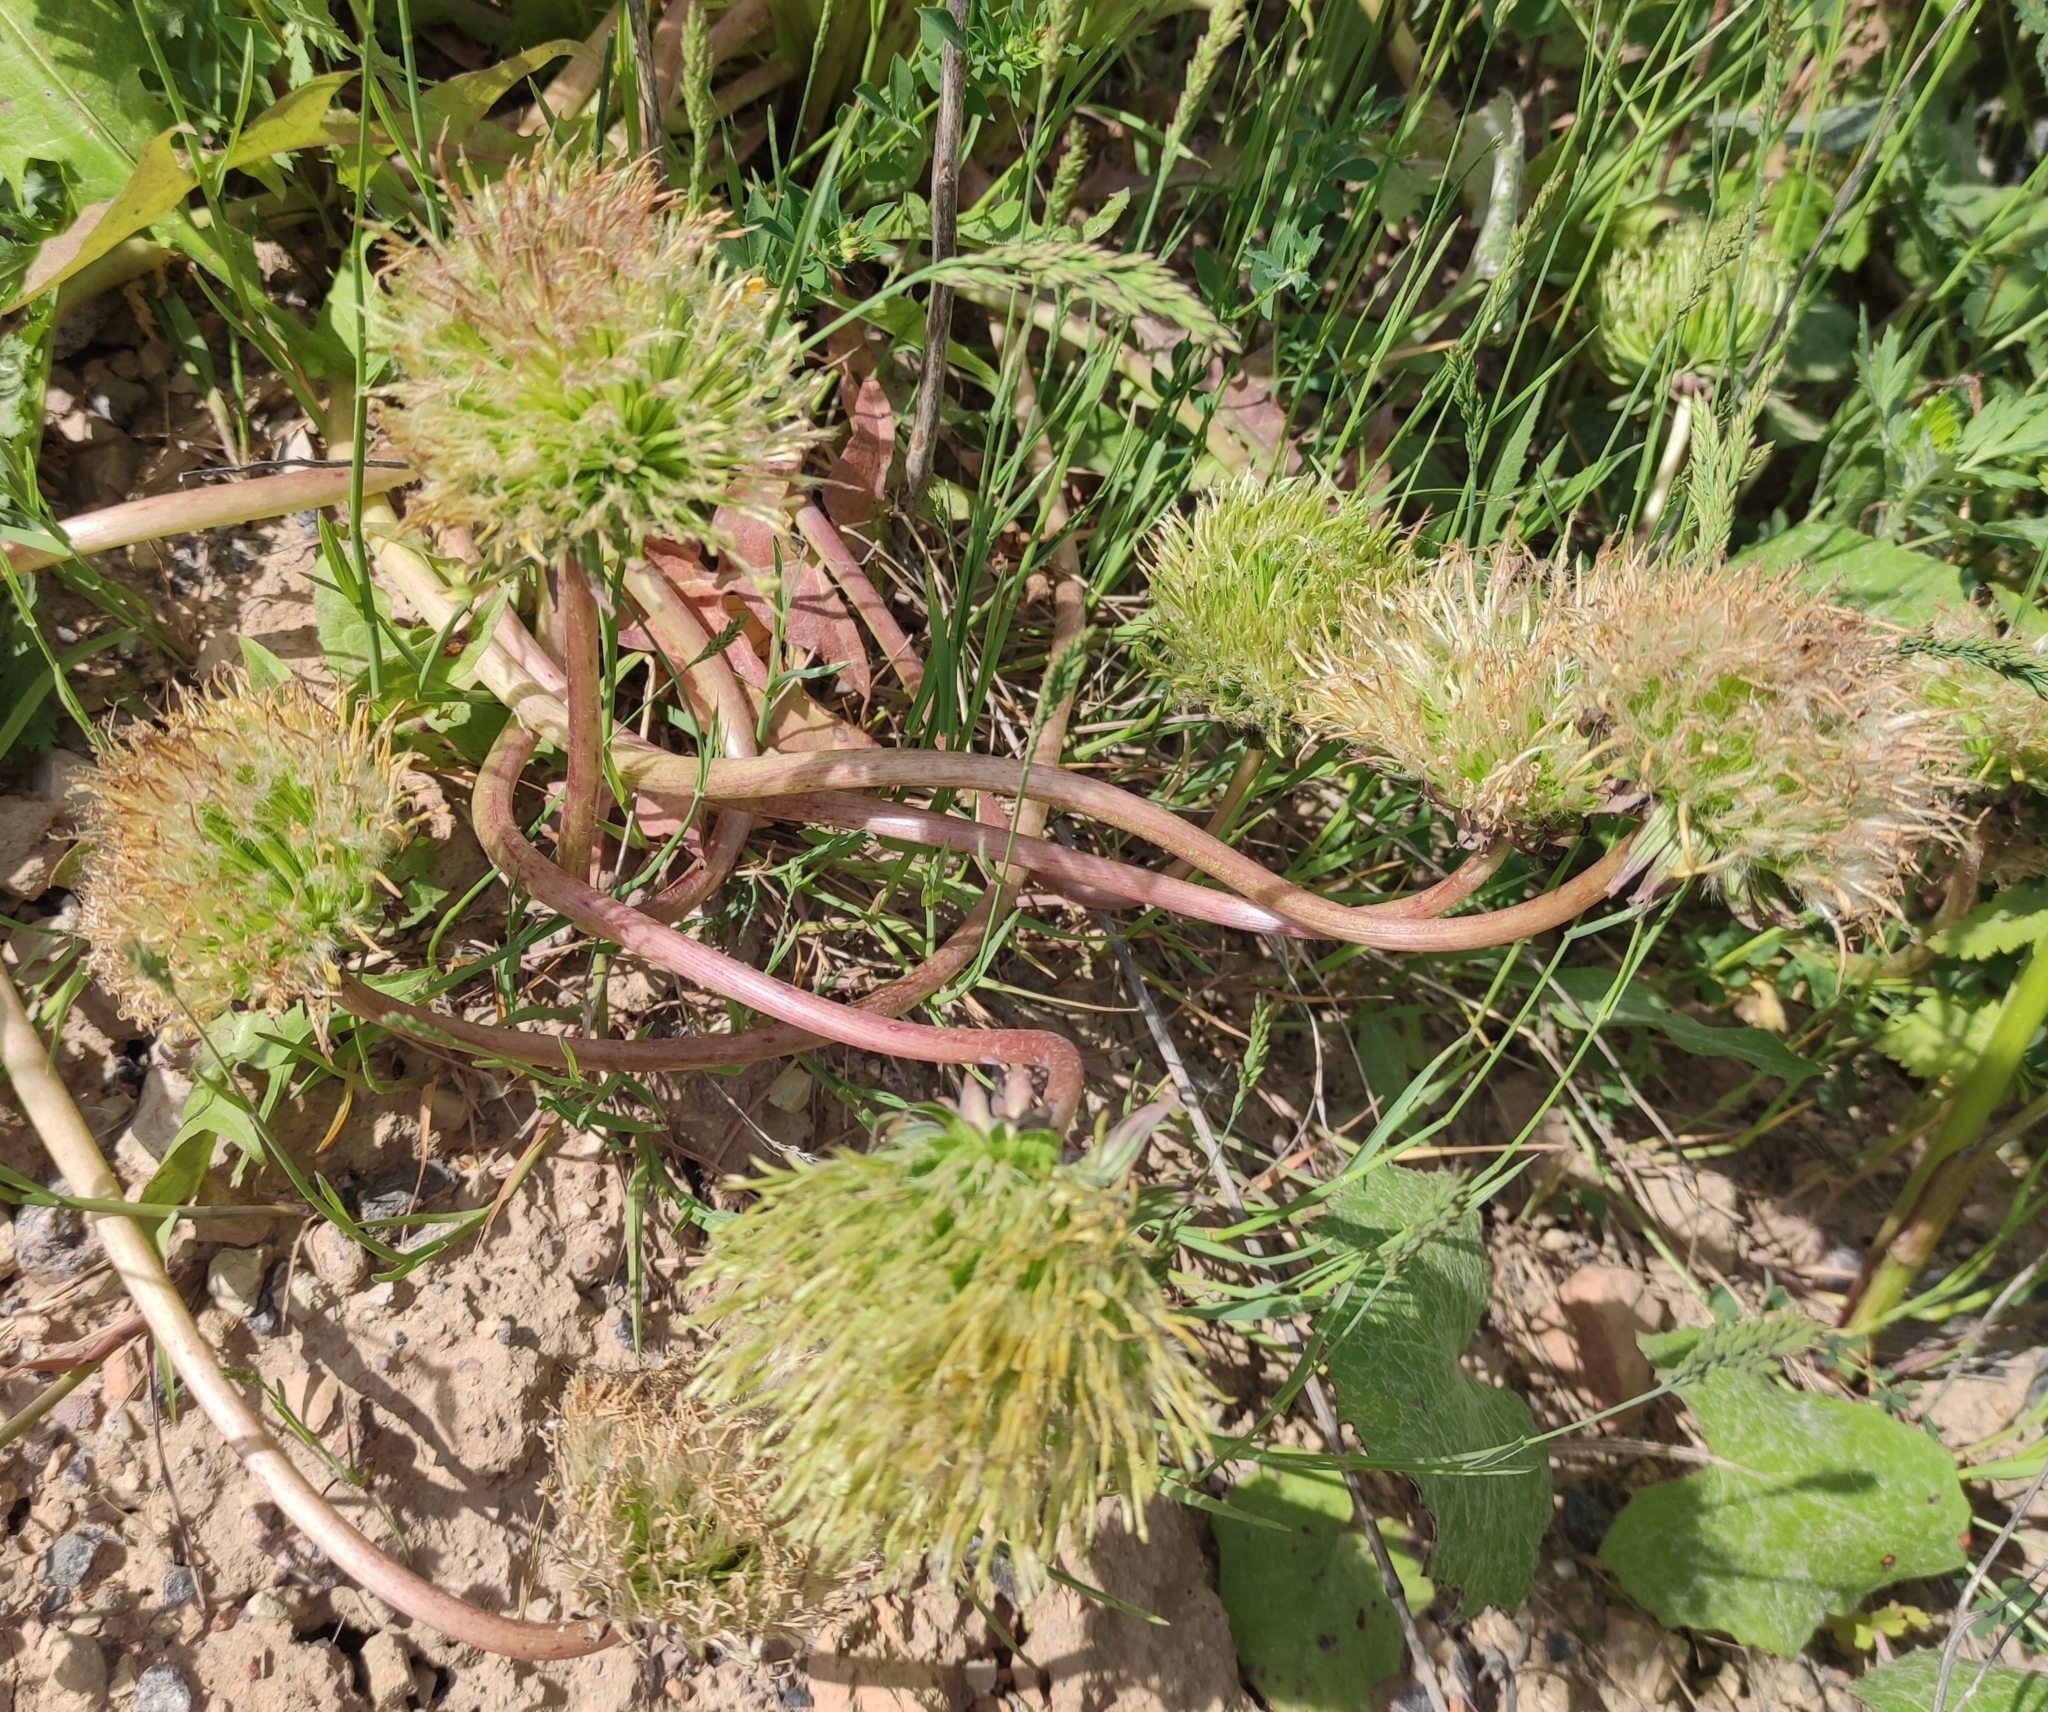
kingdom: Plantae
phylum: Tracheophyta
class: Magnoliopsida
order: Asterales
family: Asteraceae
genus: Taraxacum
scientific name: Taraxacum officinale
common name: Common dandelion
